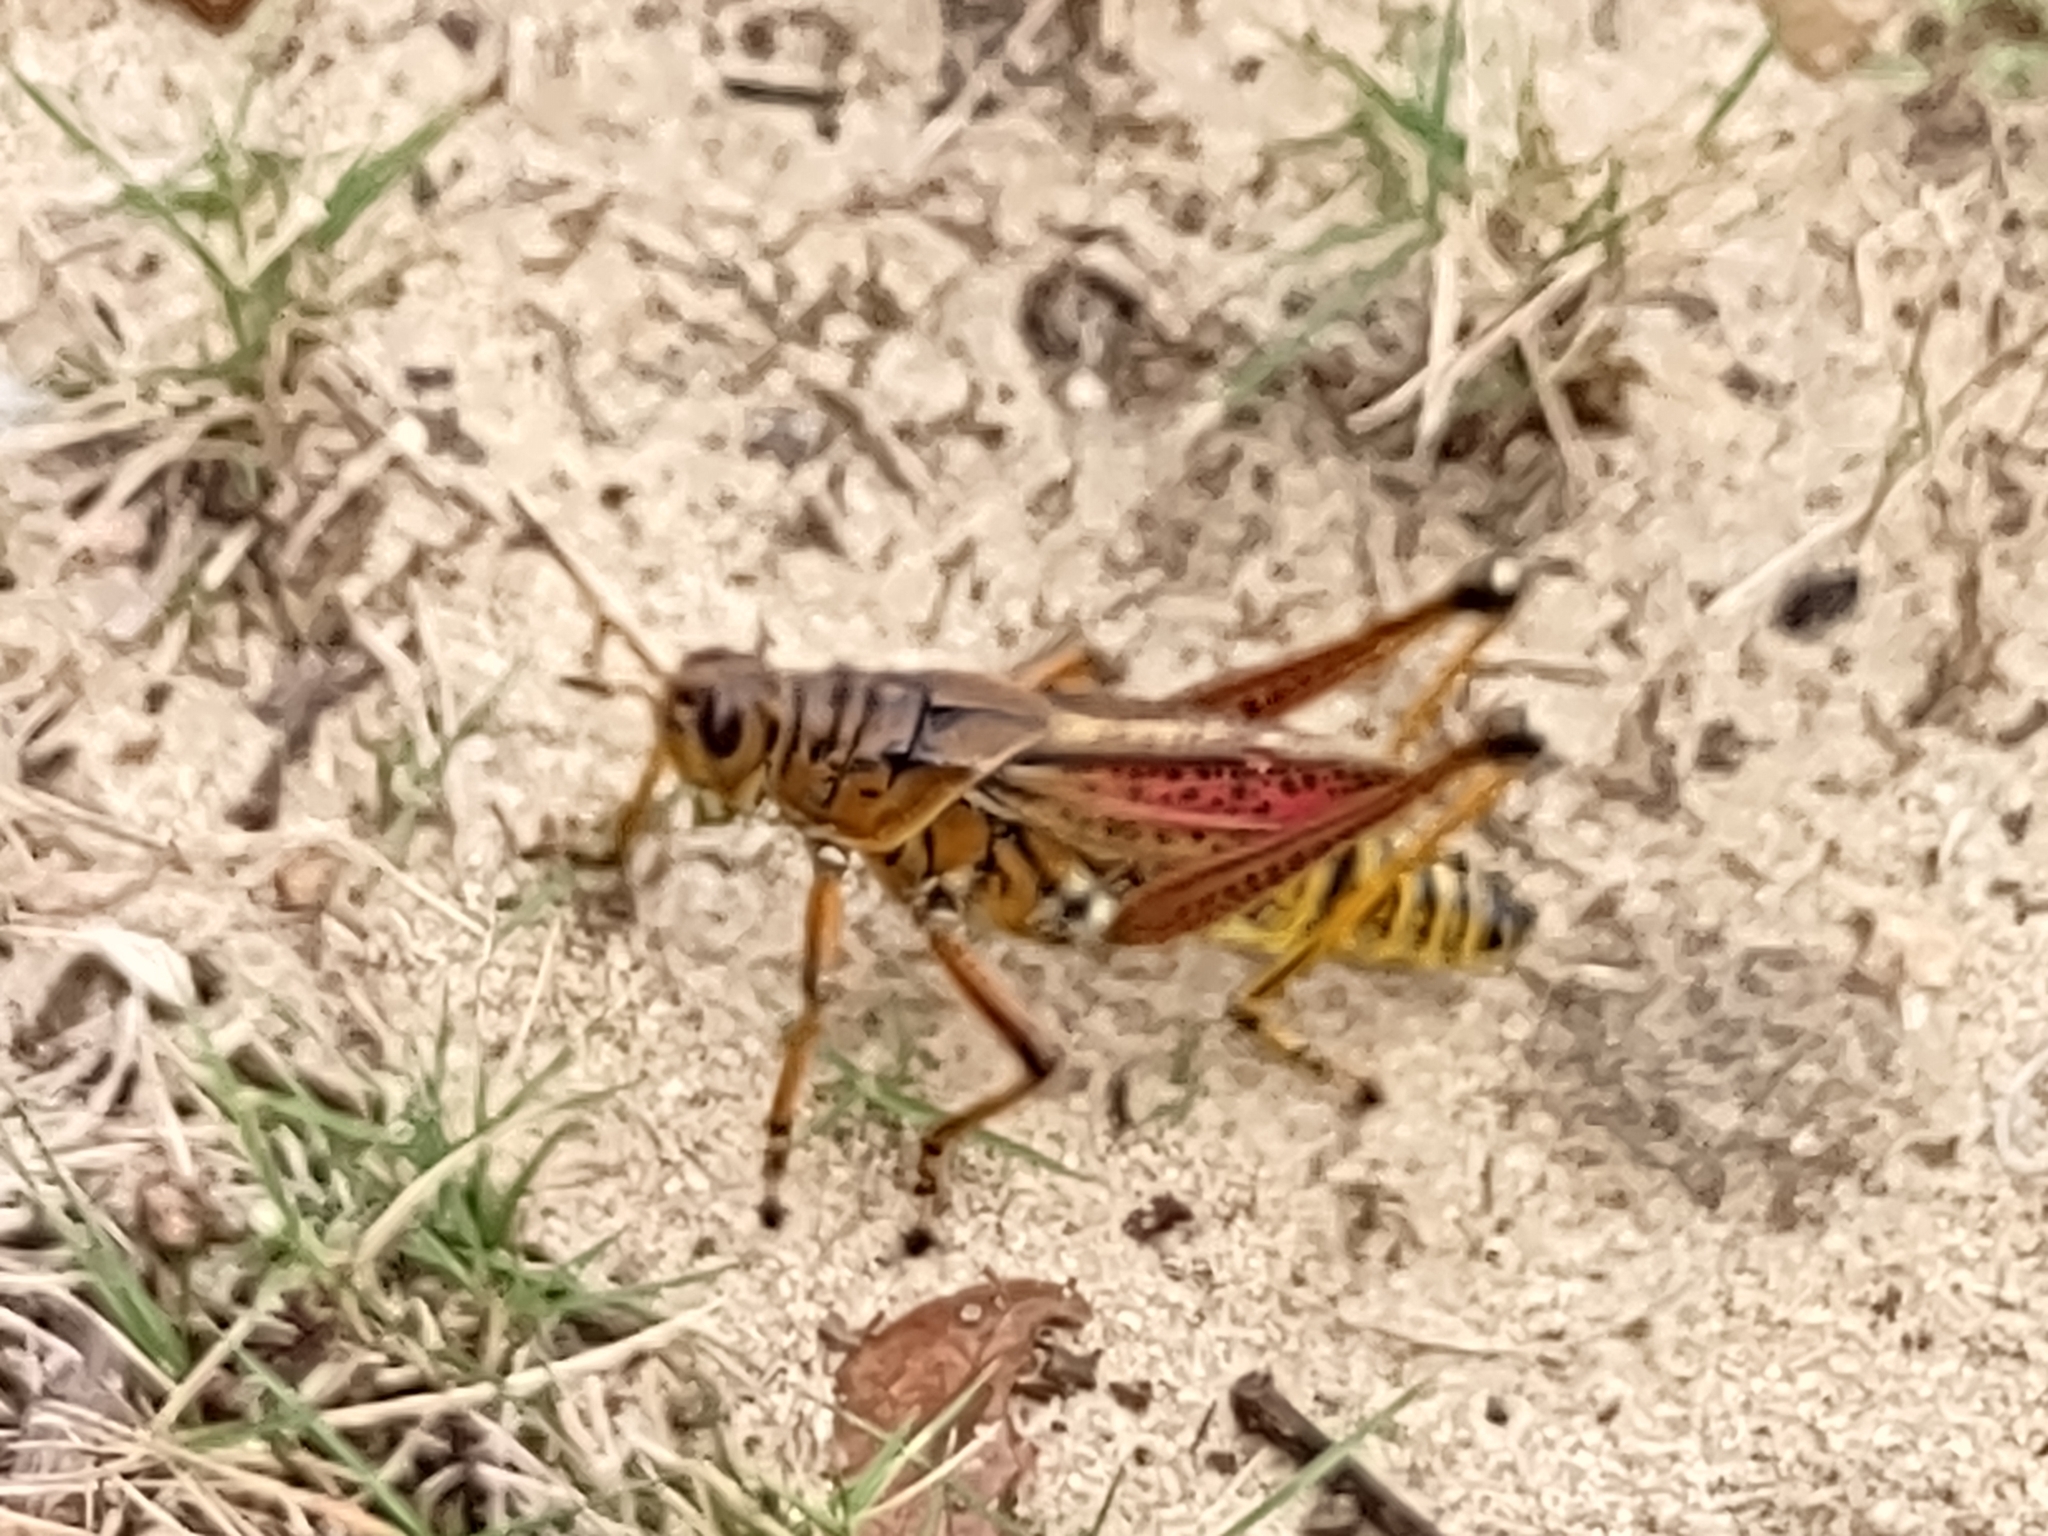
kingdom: Animalia
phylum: Arthropoda
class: Insecta
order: Orthoptera
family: Romaleidae
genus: Romalea
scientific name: Romalea microptera
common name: Eastern lubber grasshopper
